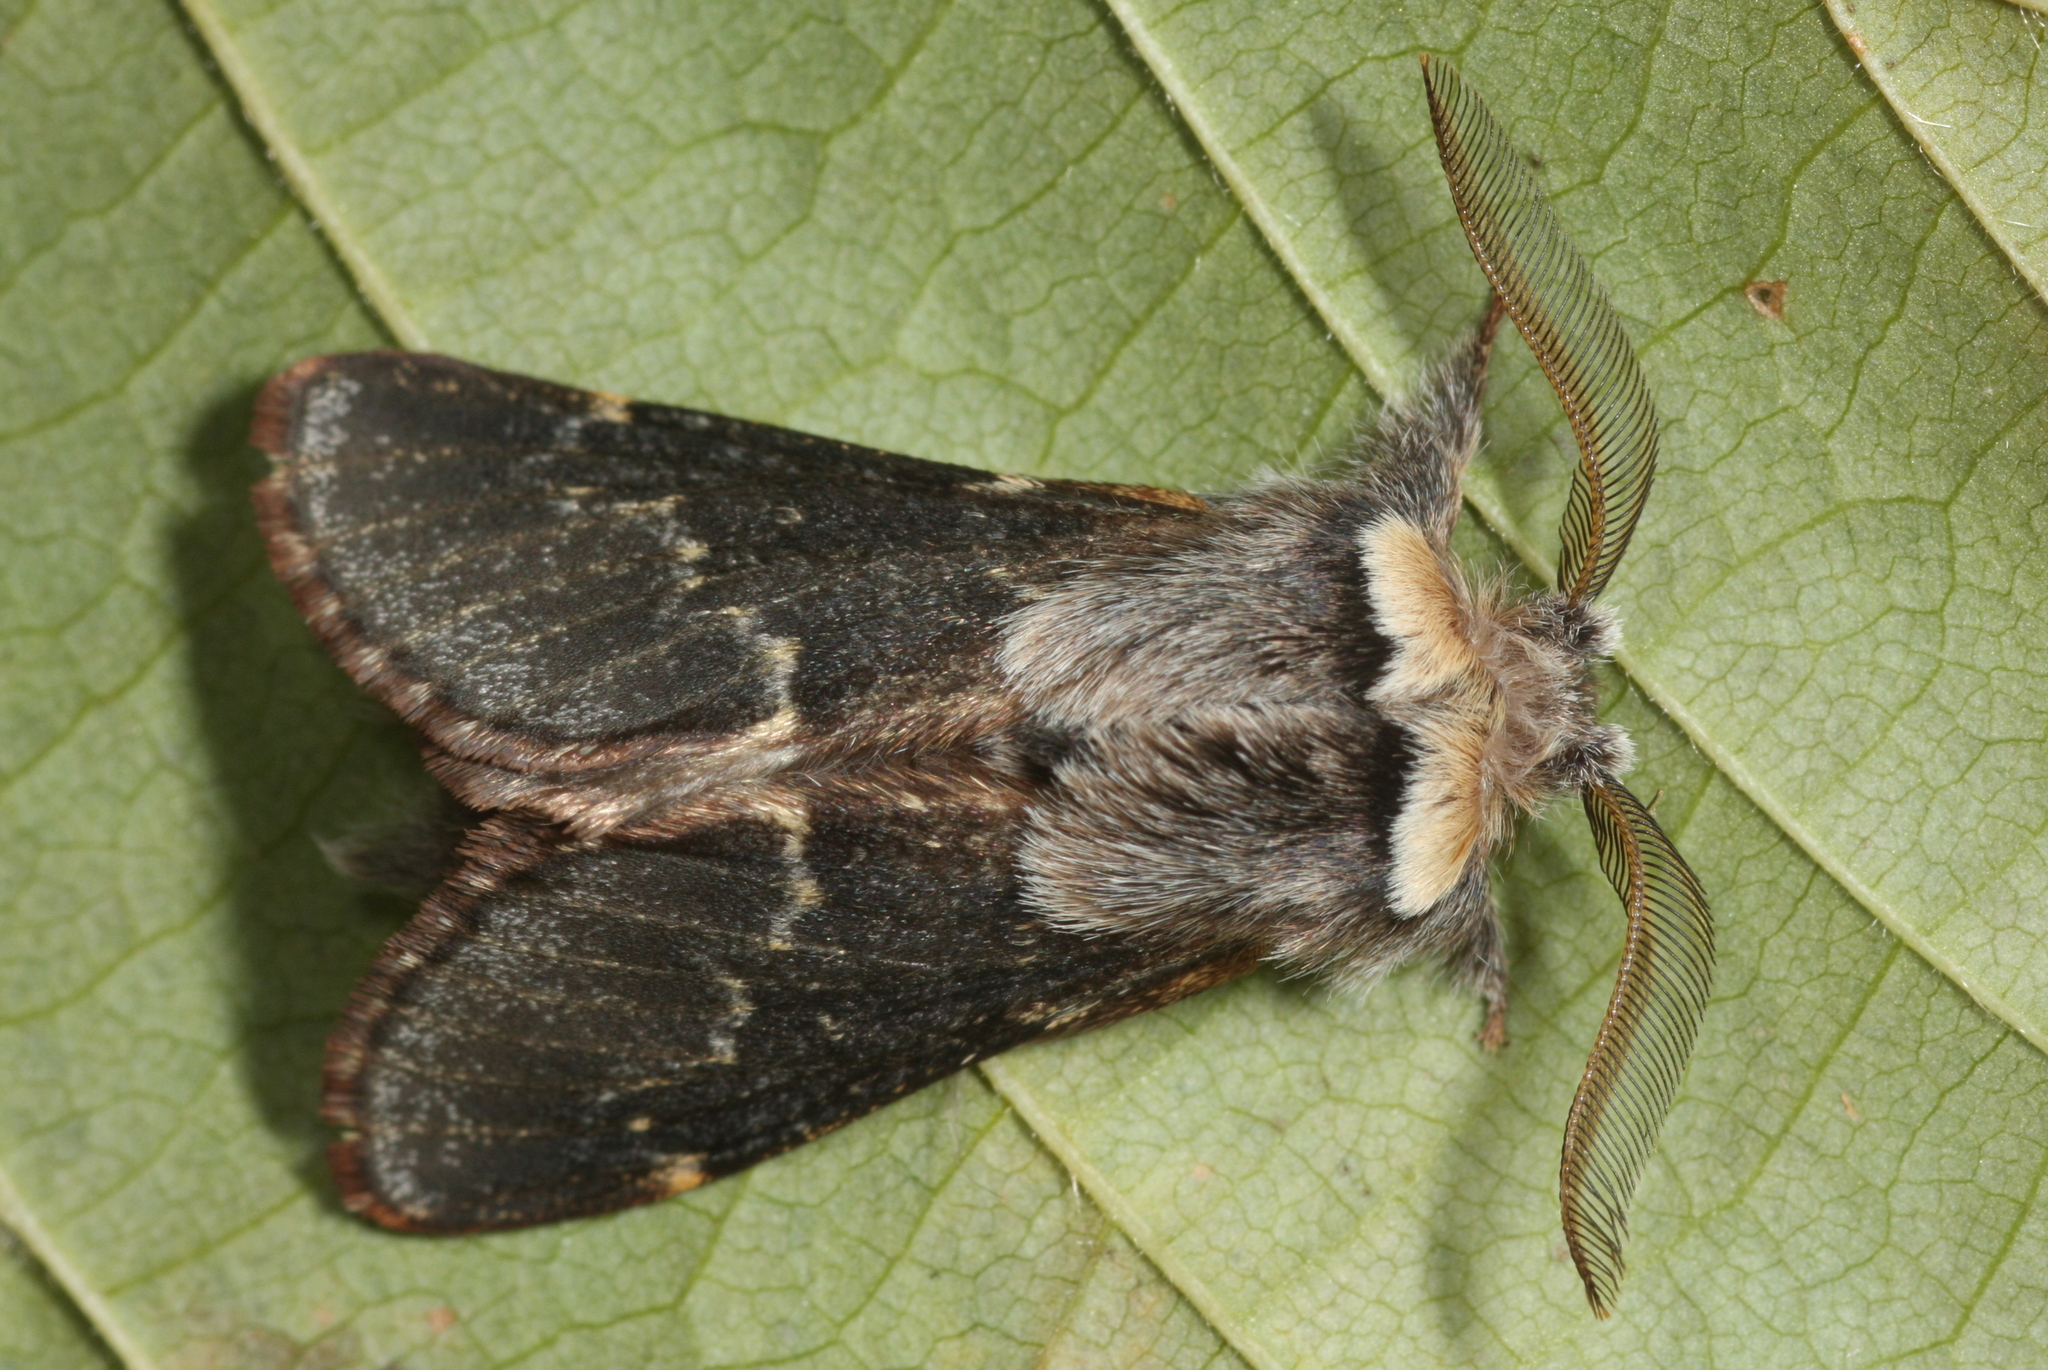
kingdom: Animalia
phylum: Arthropoda
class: Insecta
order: Lepidoptera
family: Lasiocampidae
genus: Poecilocampa
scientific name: Poecilocampa populi
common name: December moth
